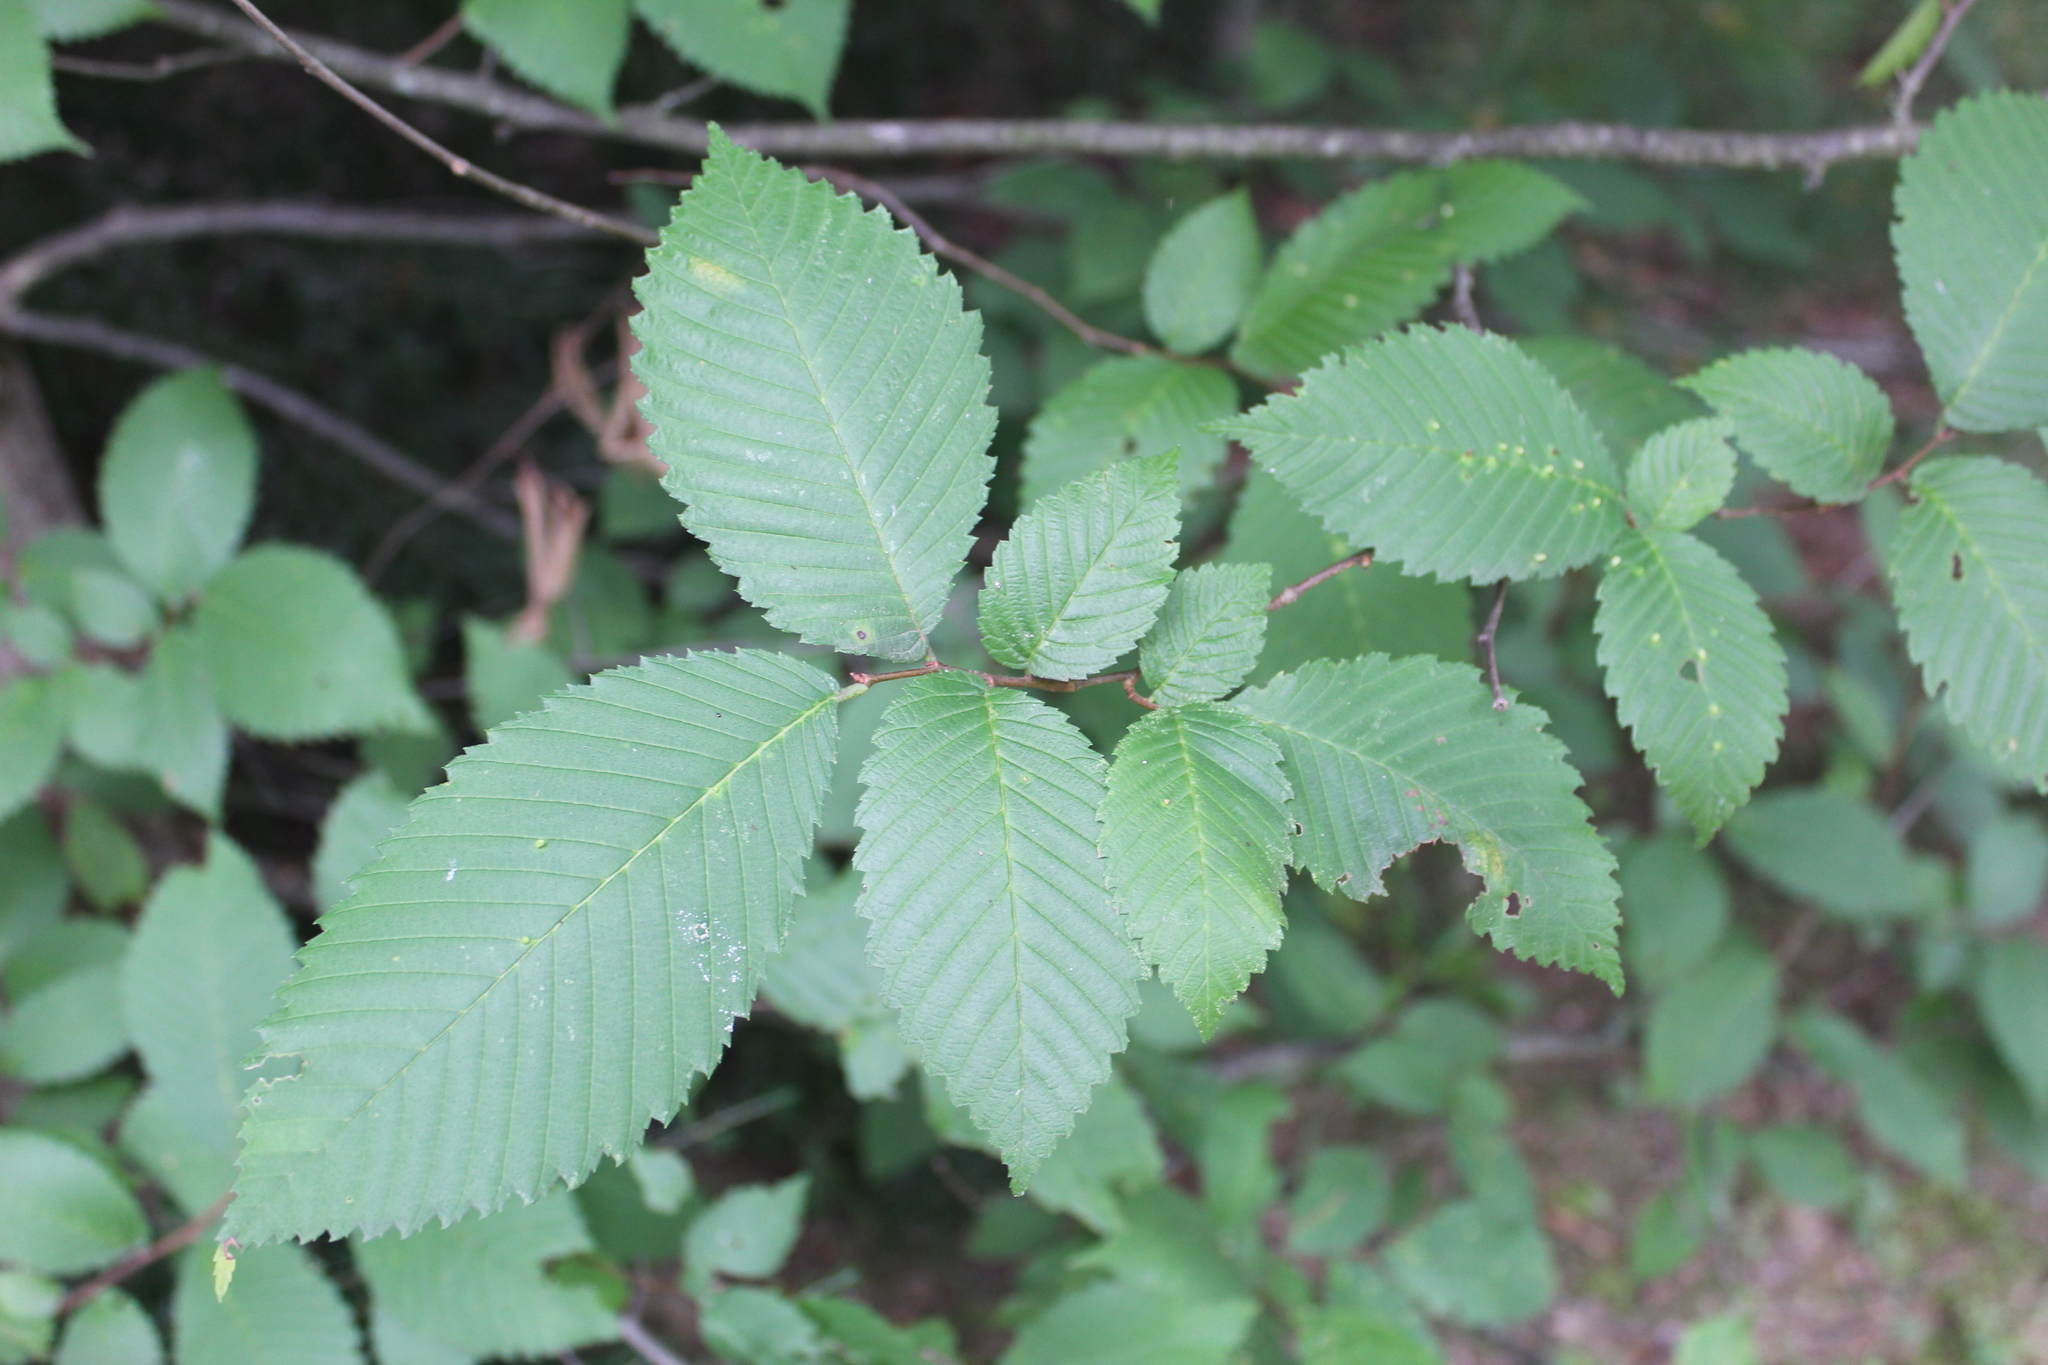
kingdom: Plantae
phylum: Tracheophyta
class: Magnoliopsida
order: Rosales
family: Ulmaceae
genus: Ulmus
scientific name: Ulmus
